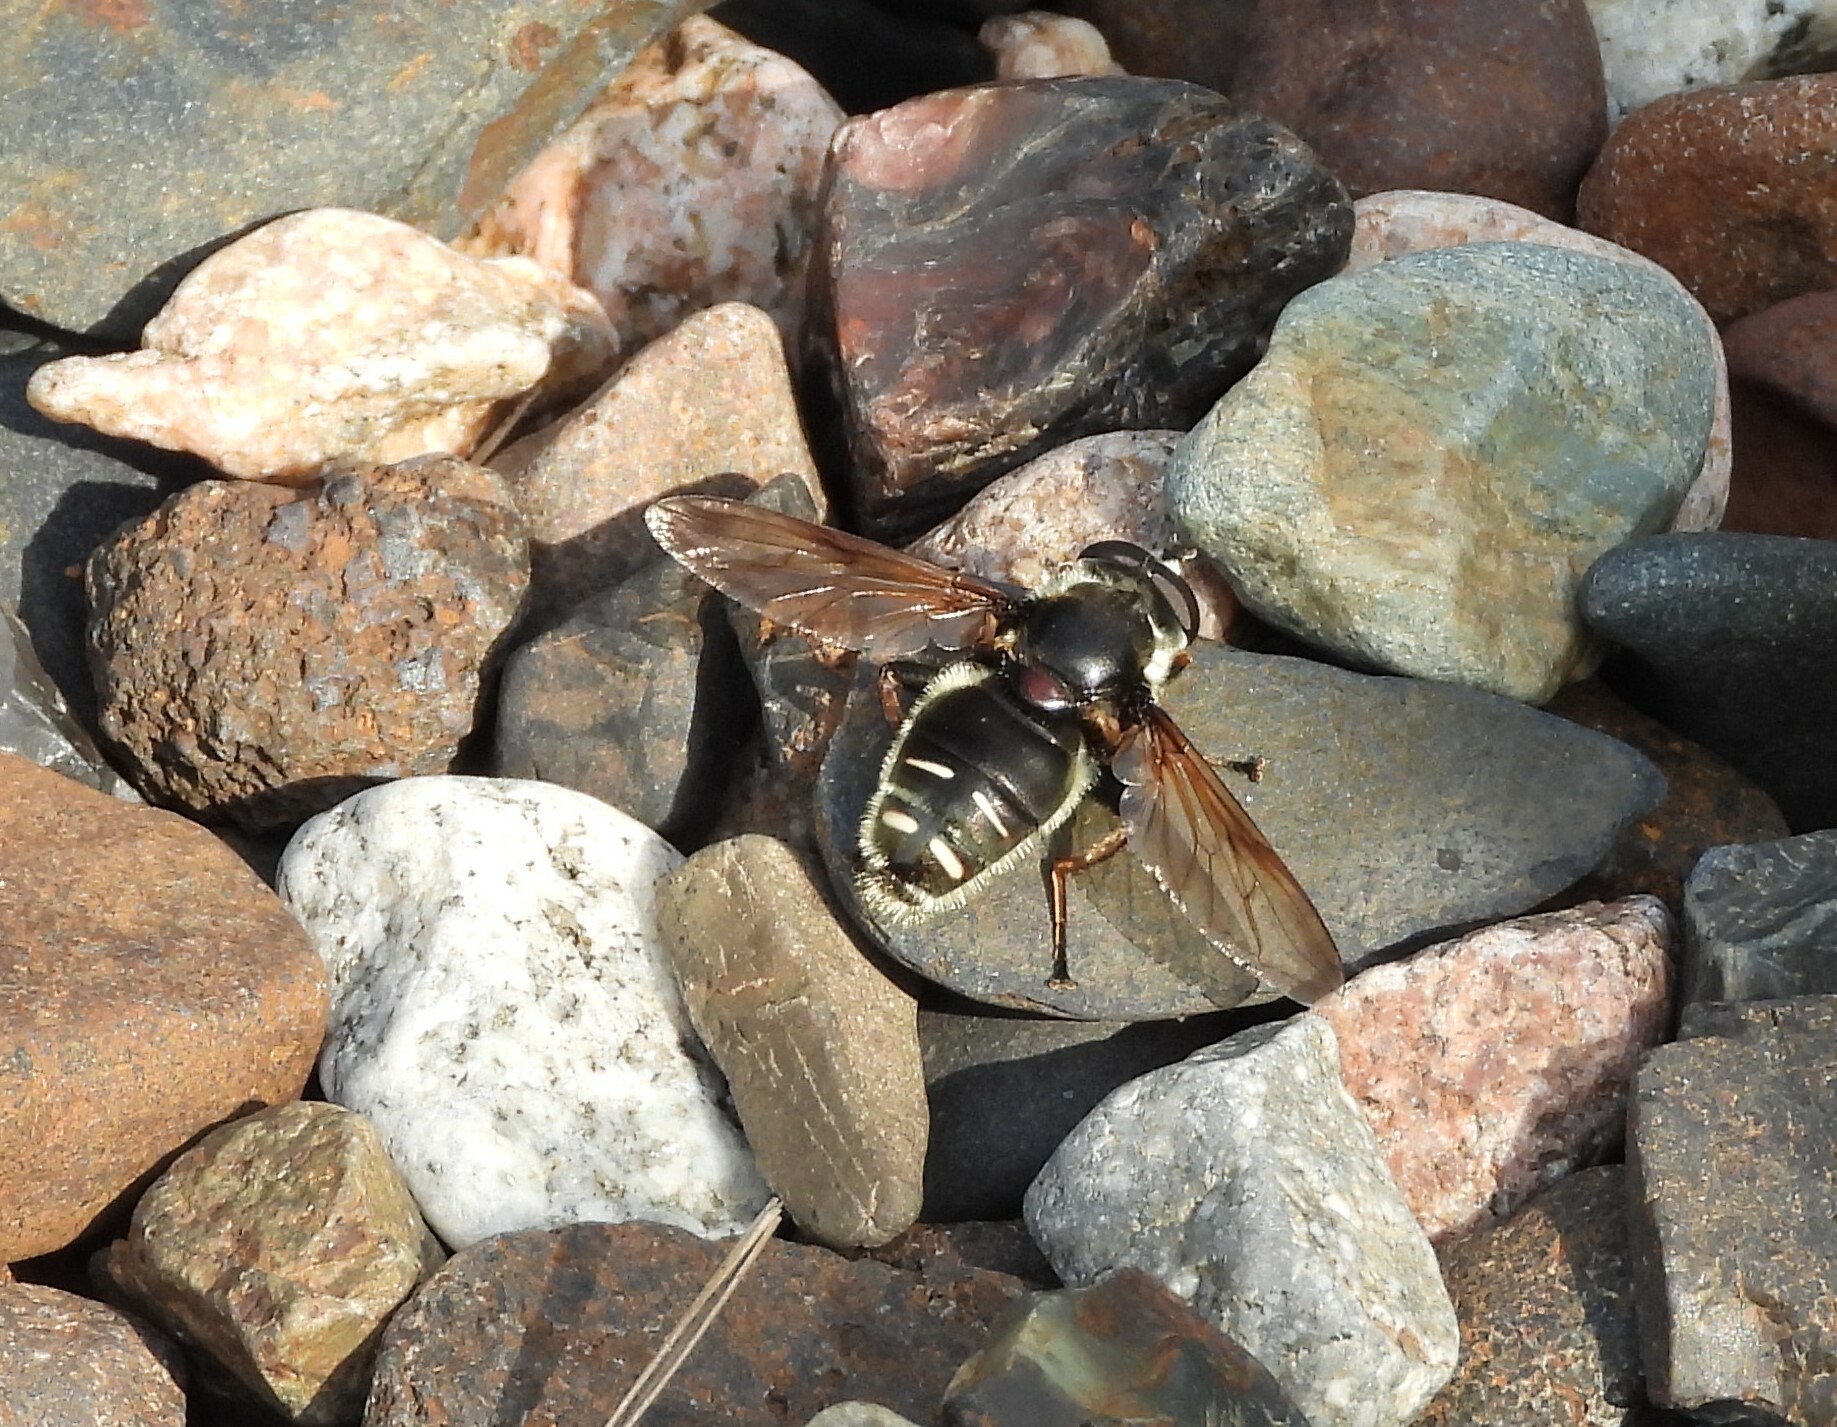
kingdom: Animalia
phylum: Arthropoda
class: Insecta
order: Diptera
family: Syrphidae
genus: Sericomyia
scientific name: Sericomyia militaris
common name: Narrow-banded pond fly
